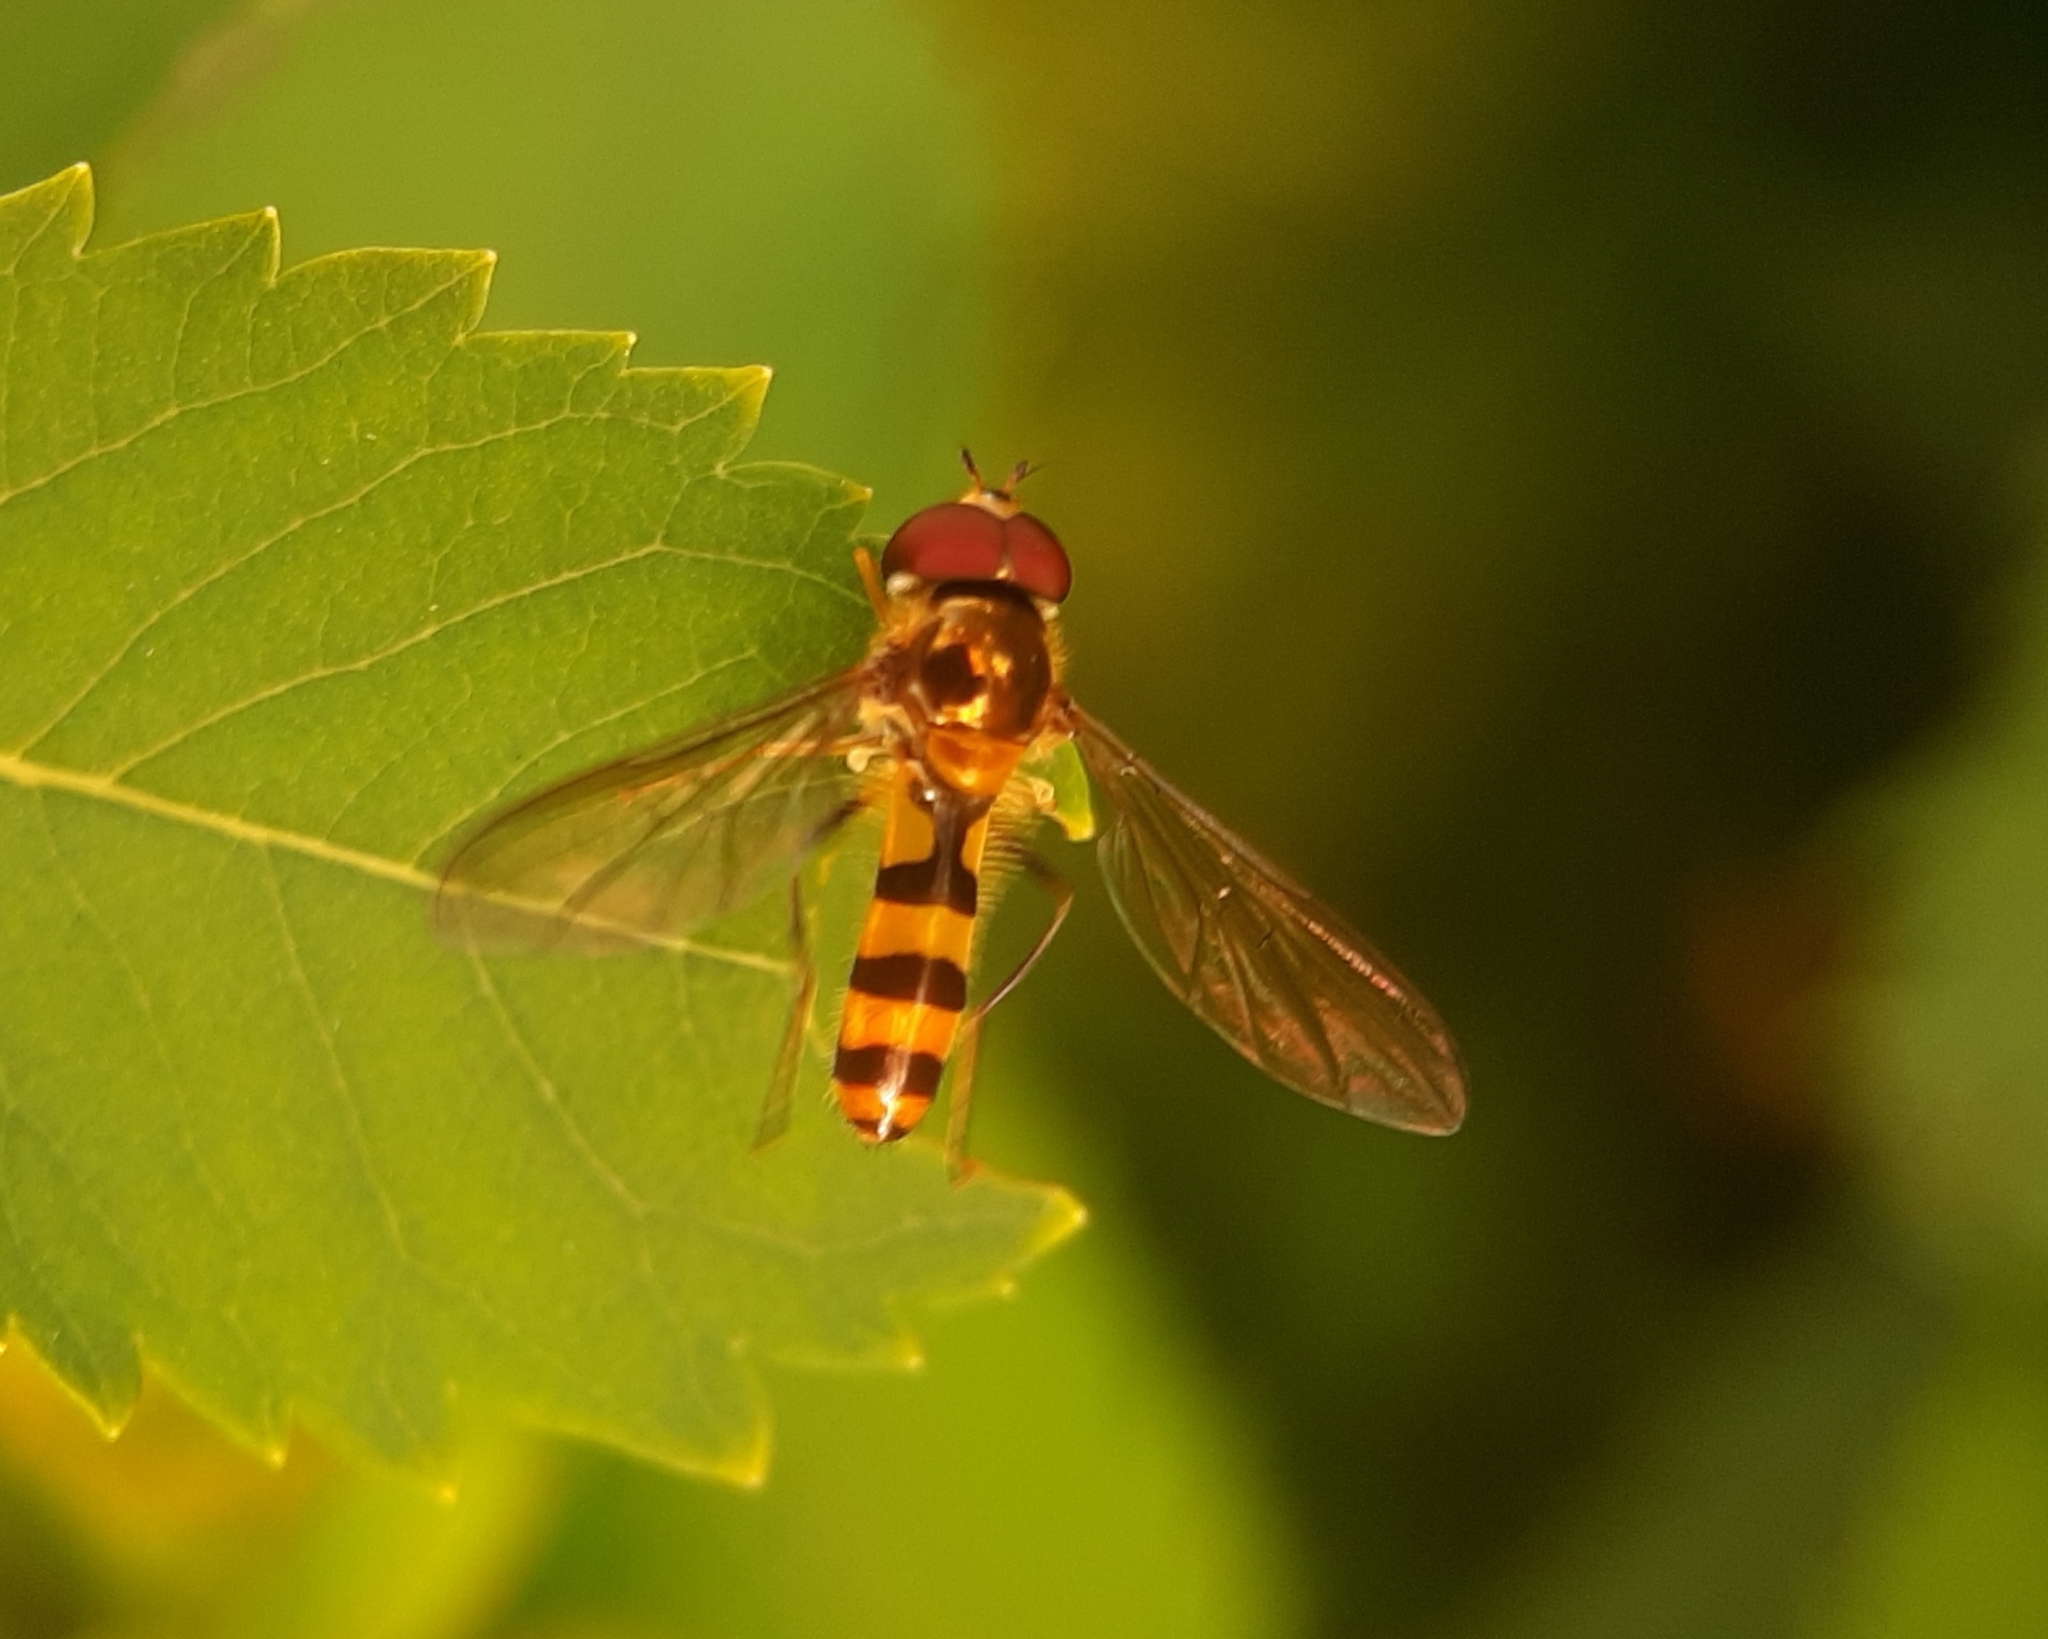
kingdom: Animalia
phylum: Arthropoda
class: Insecta
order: Diptera
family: Syrphidae
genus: Meliscaeva
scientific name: Meliscaeva cinctella
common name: American thintail fly
